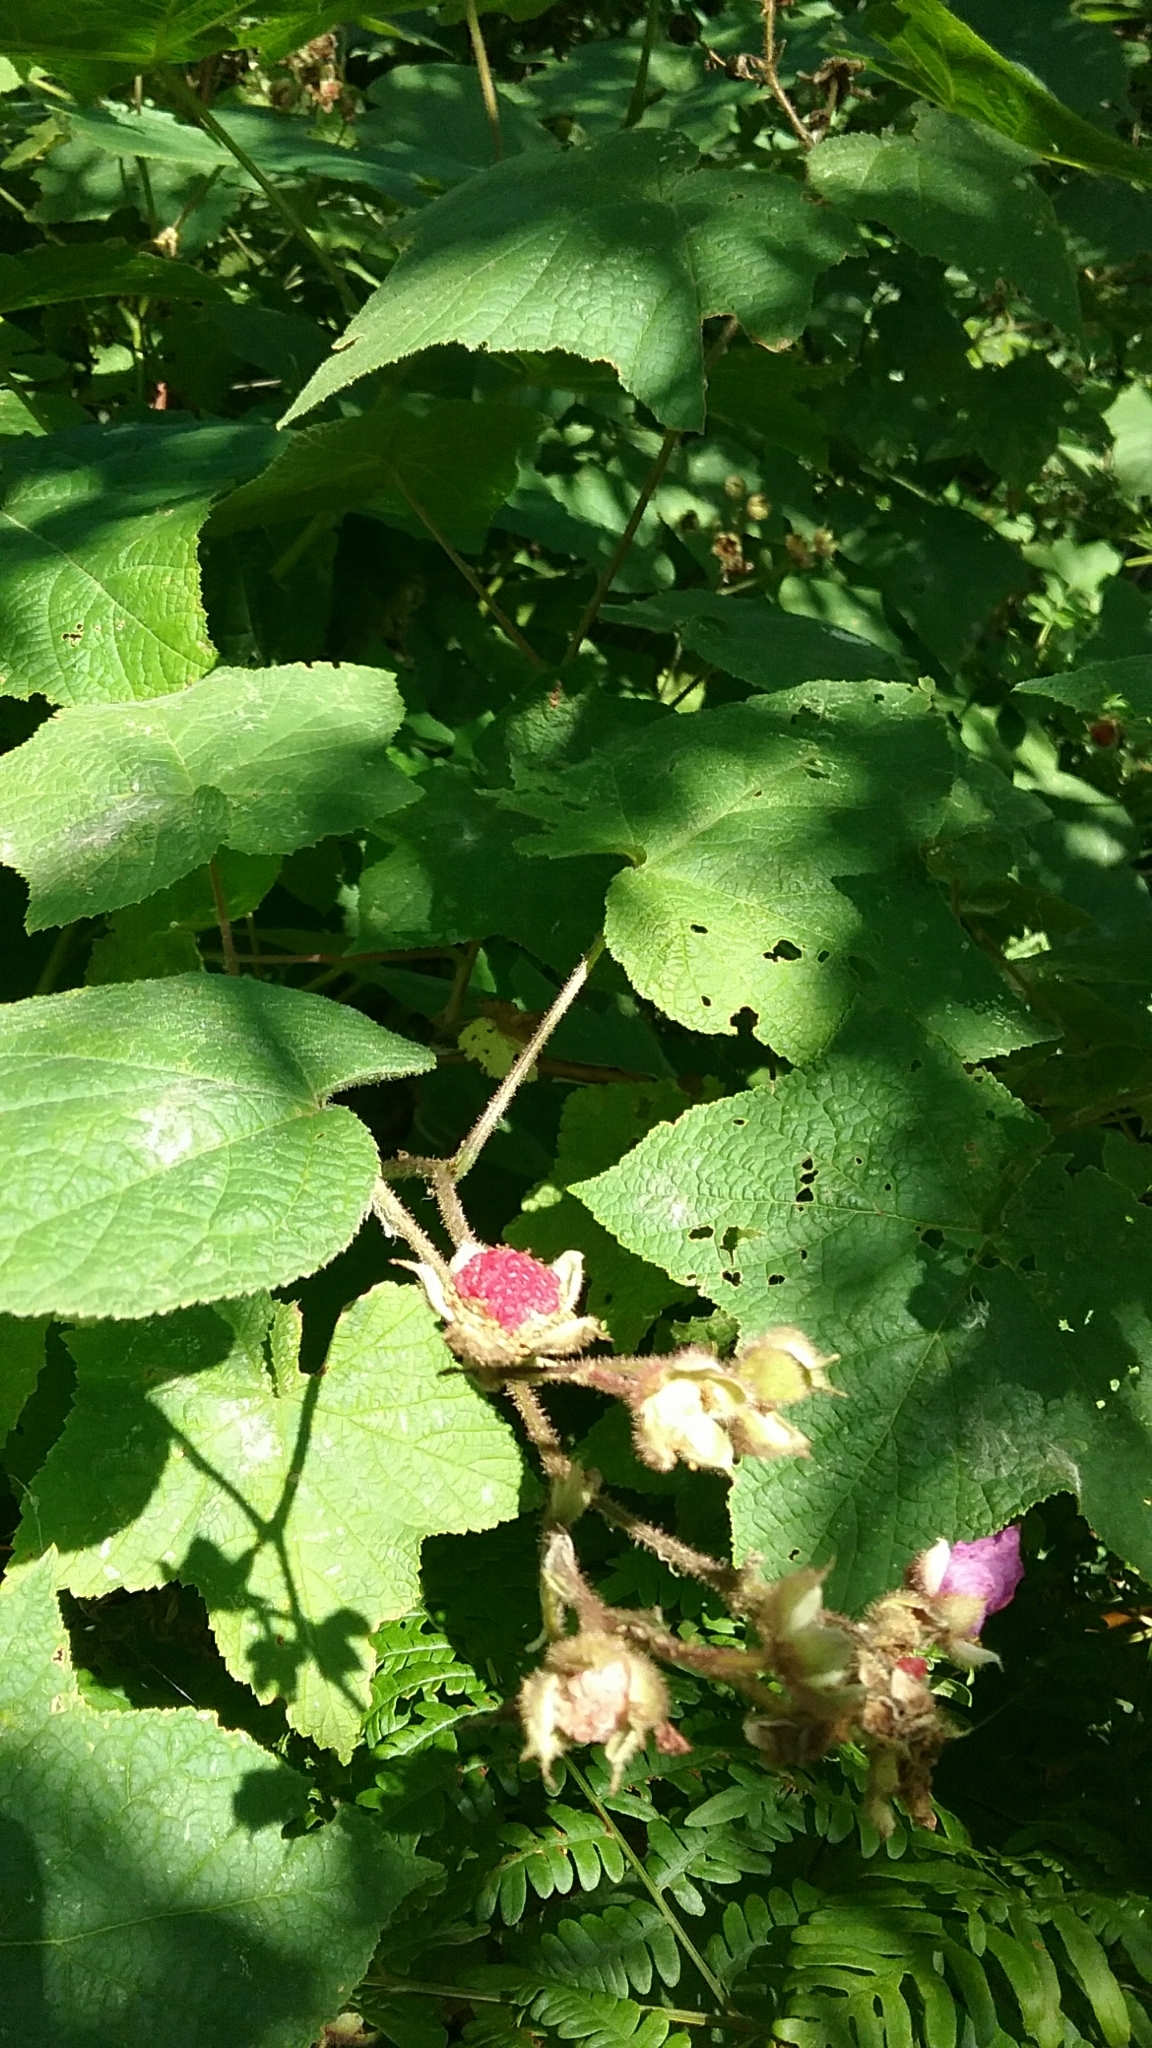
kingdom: Plantae
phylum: Tracheophyta
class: Magnoliopsida
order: Rosales
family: Rosaceae
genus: Rubus
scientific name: Rubus odoratus
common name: Purple-flowered raspberry
